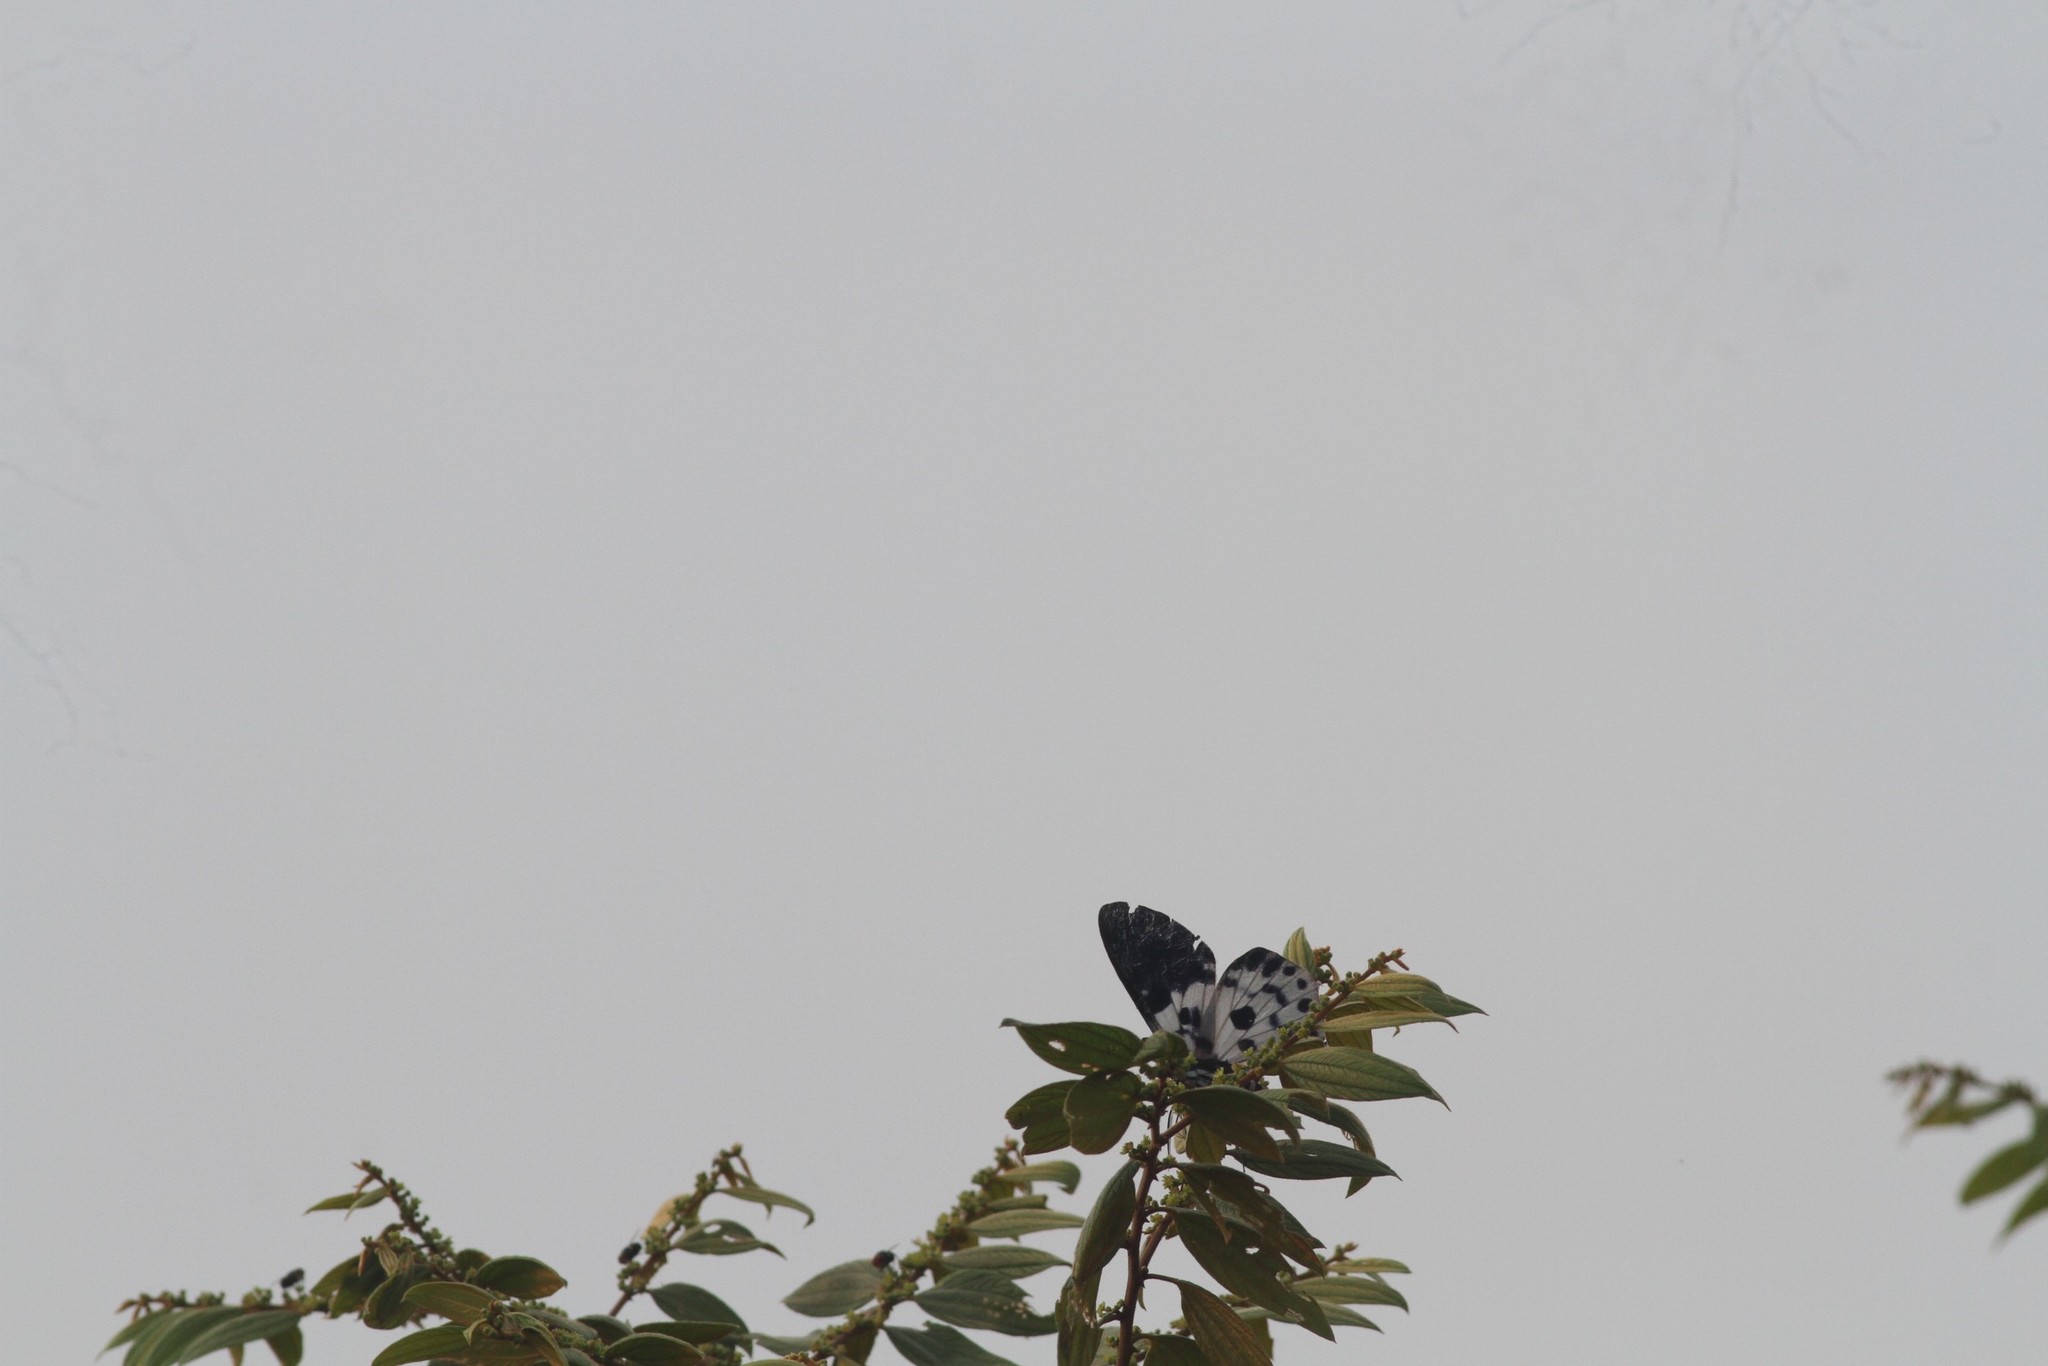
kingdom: Animalia
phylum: Arthropoda
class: Insecta
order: Lepidoptera
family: Geometridae
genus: Dysphania
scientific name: Dysphania percota
